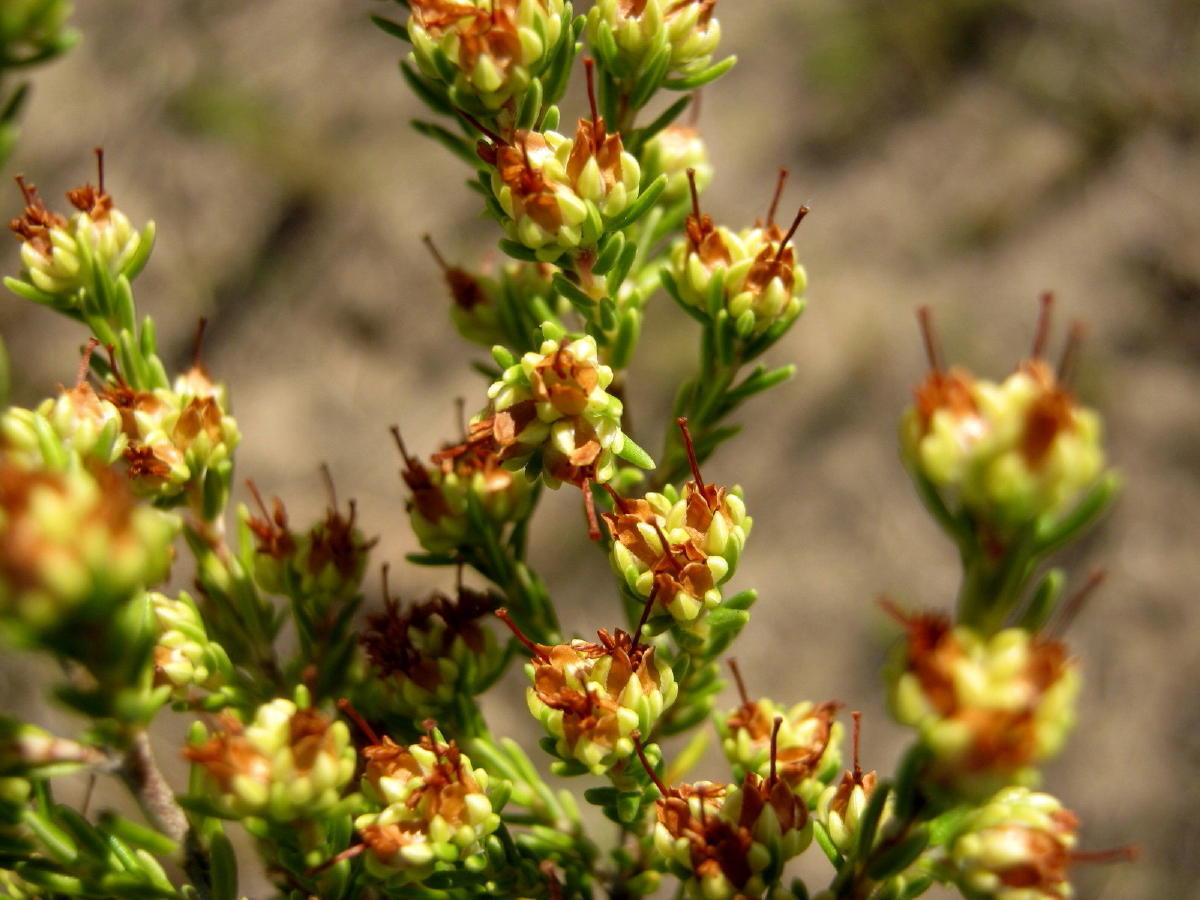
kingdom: Plantae
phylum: Tracheophyta
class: Magnoliopsida
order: Ericales
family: Ericaceae
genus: Erica
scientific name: Erica glumiflora
